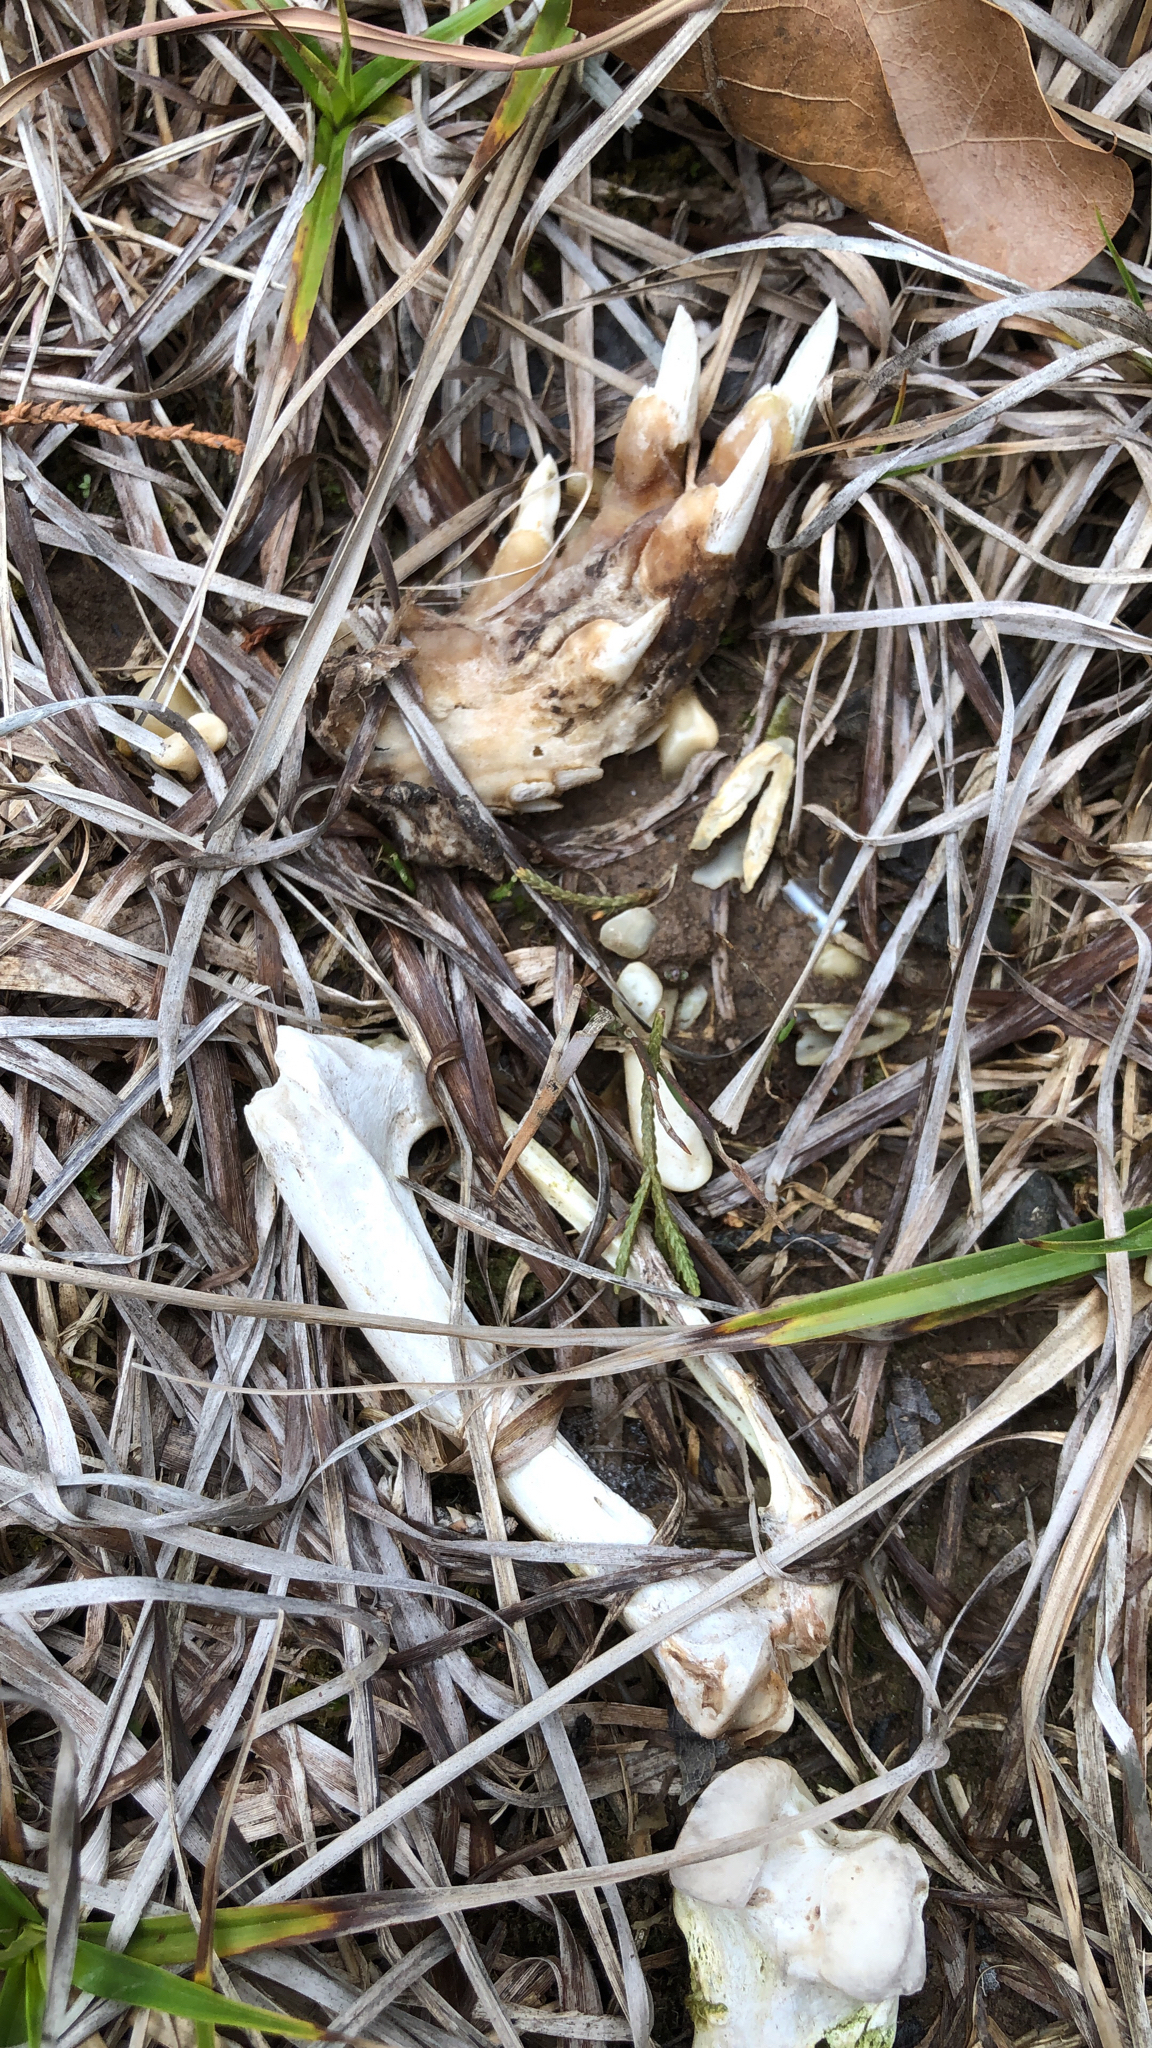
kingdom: Animalia
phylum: Chordata
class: Mammalia
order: Cingulata
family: Dasypodidae
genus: Dasypus
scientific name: Dasypus novemcinctus
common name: Nine-banded armadillo
